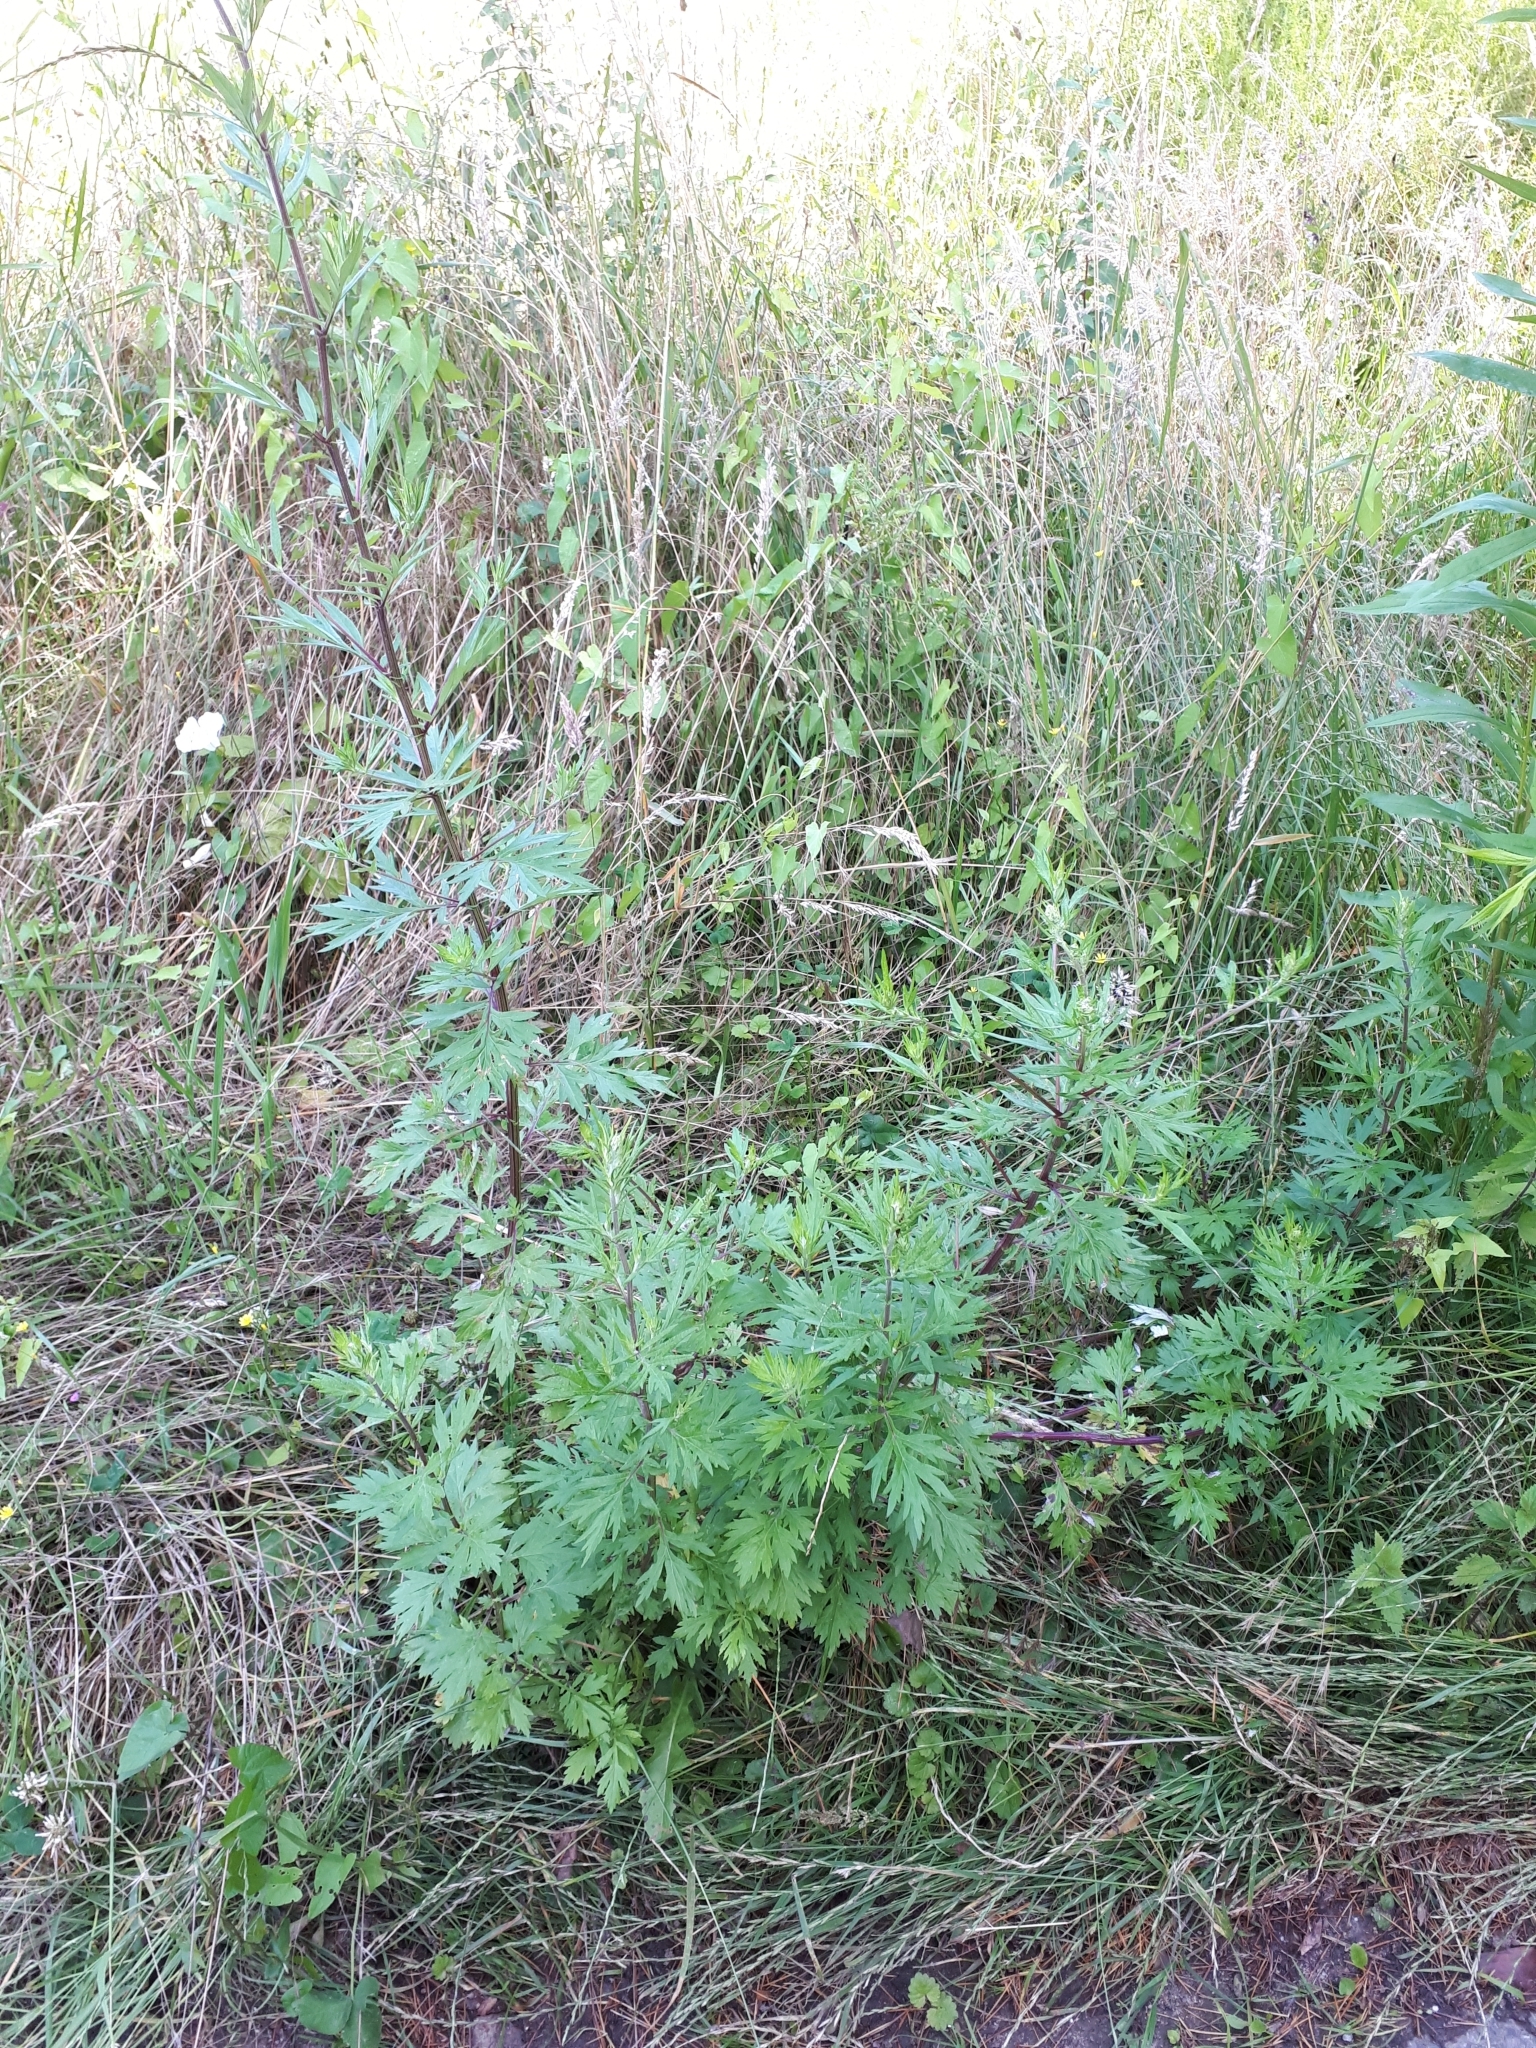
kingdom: Plantae
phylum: Tracheophyta
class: Magnoliopsida
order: Asterales
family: Asteraceae
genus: Artemisia
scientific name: Artemisia vulgaris
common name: Mugwort
